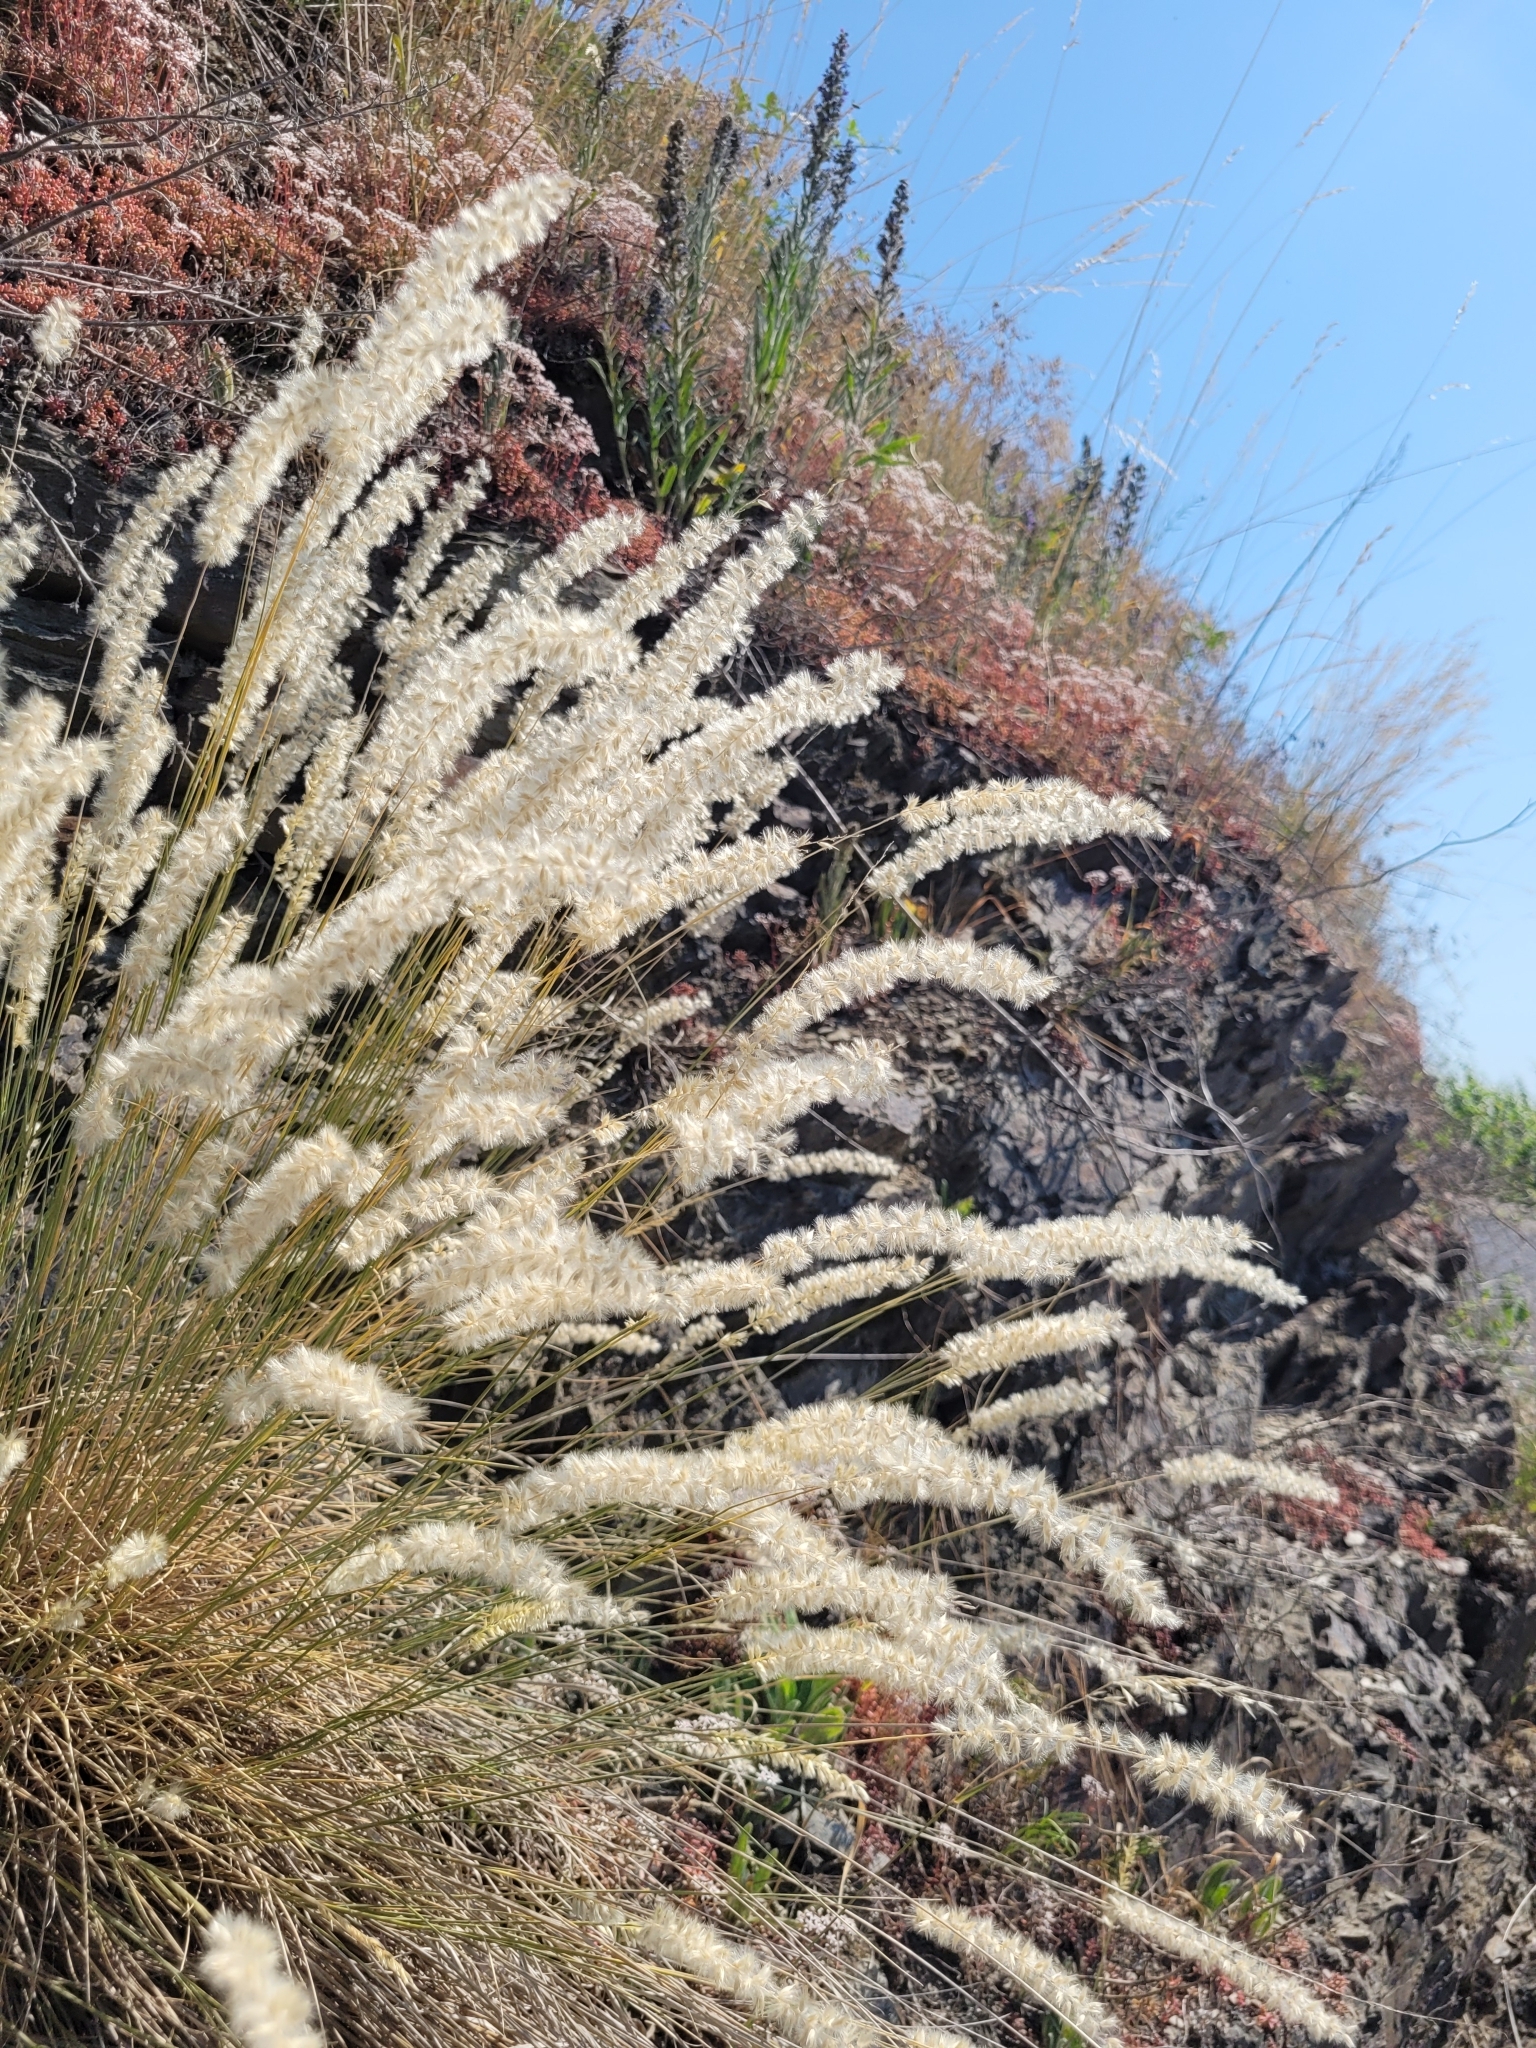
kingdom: Plantae
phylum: Tracheophyta
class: Liliopsida
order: Poales
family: Poaceae
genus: Melica
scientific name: Melica ciliata
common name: Hairy melicgrass
